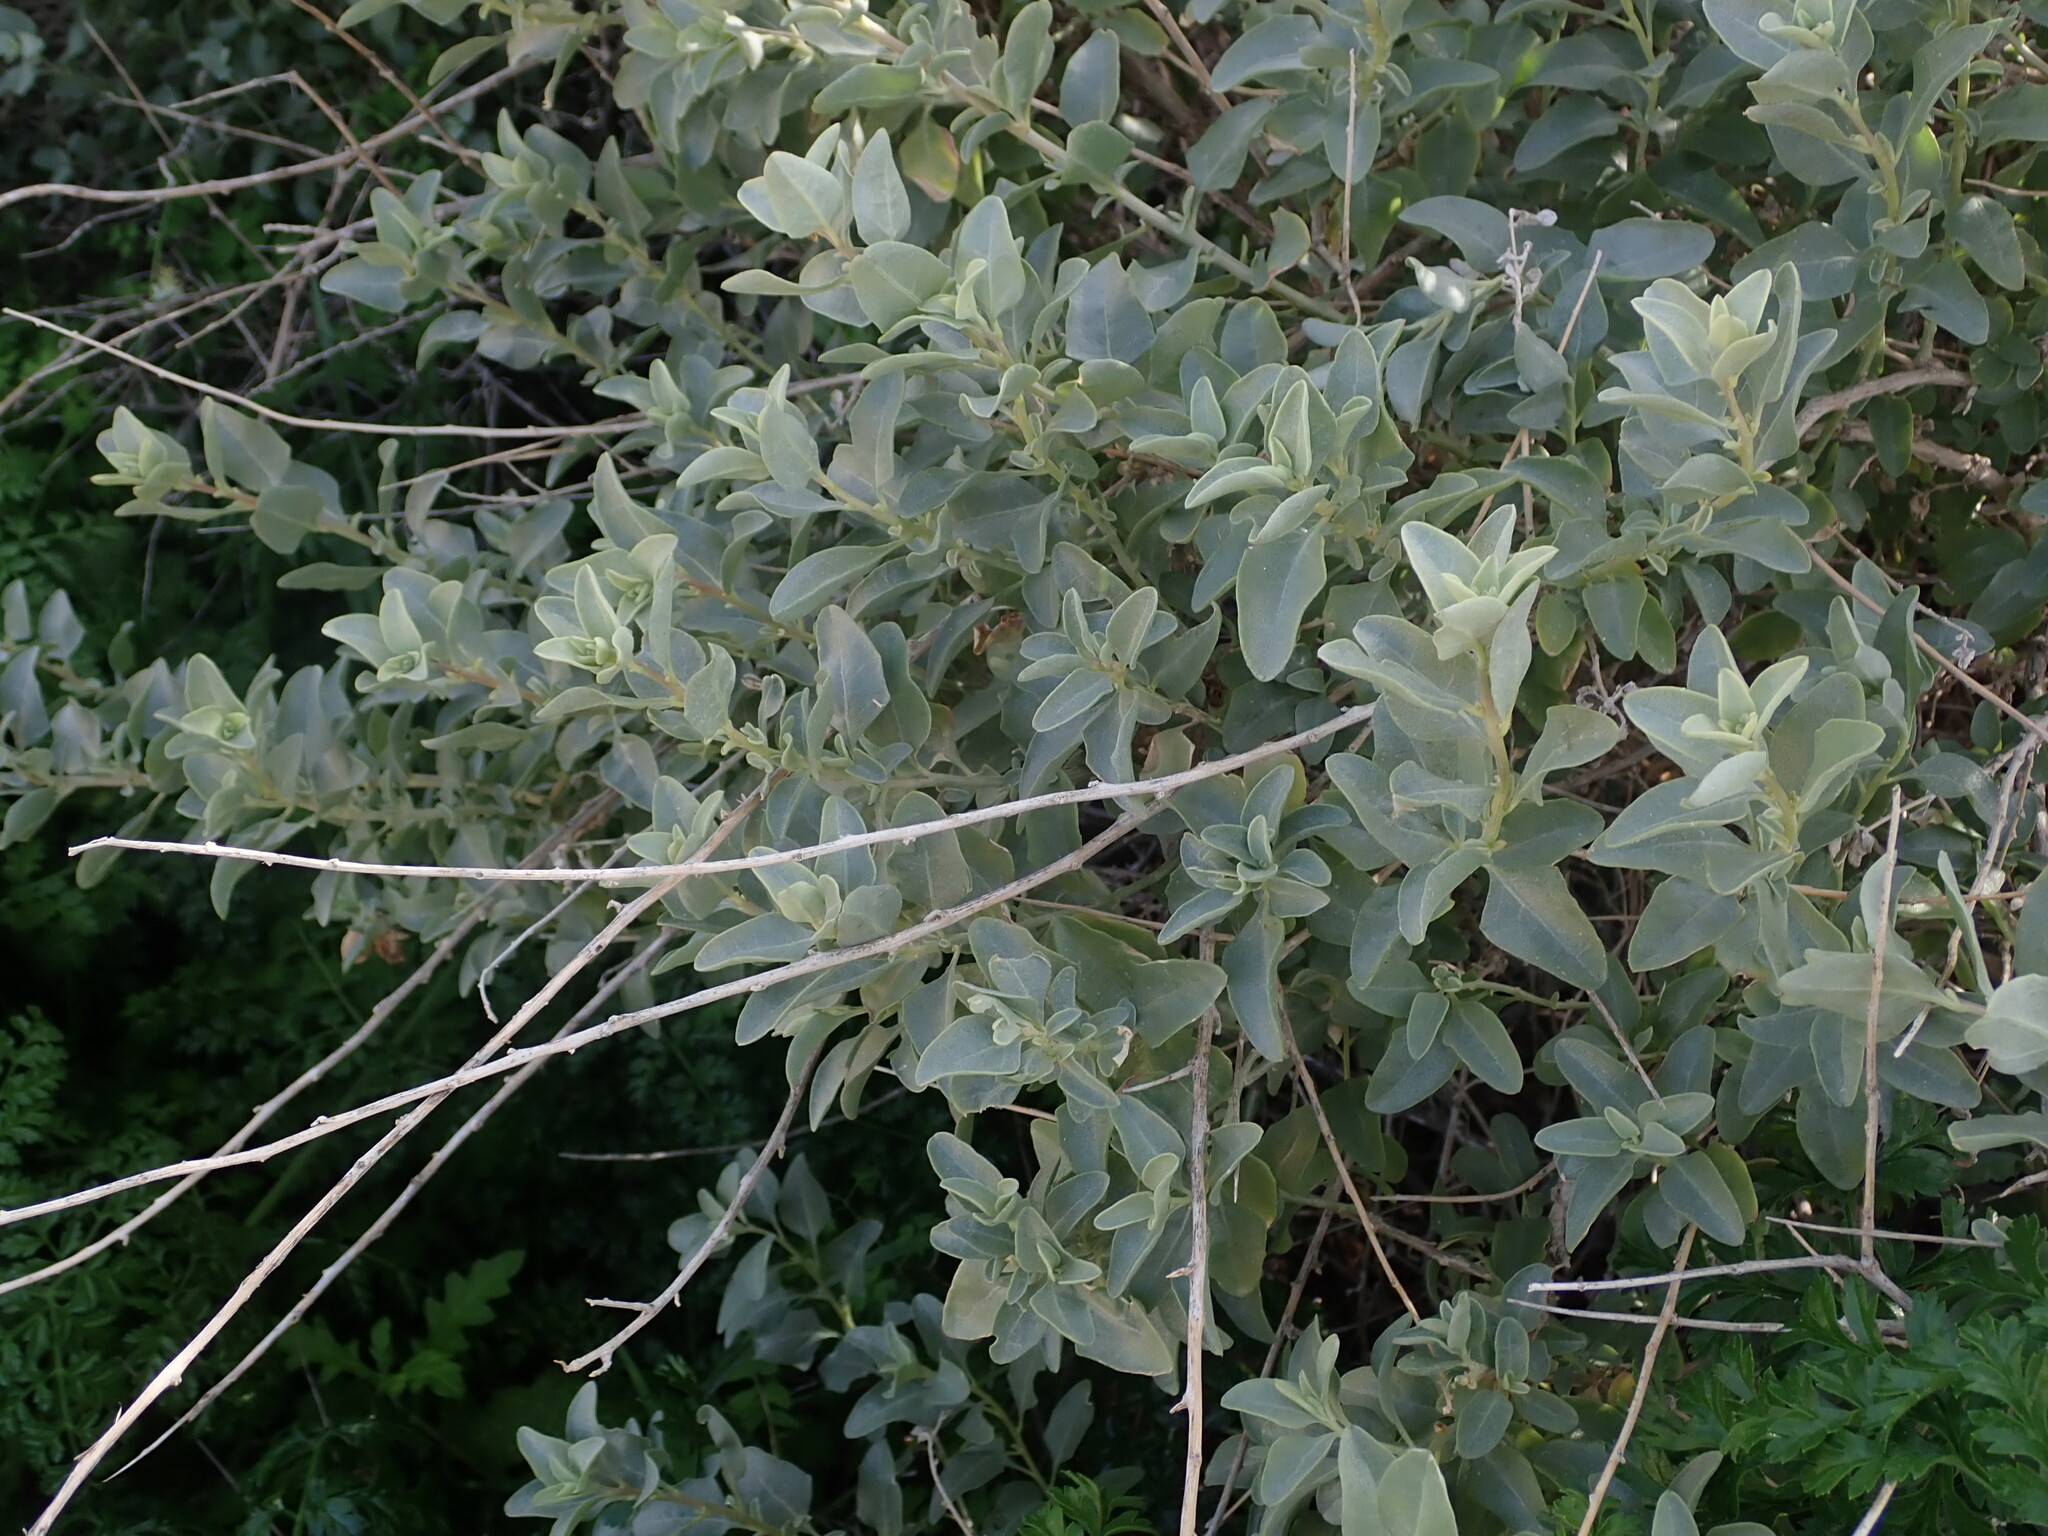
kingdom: Plantae
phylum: Tracheophyta
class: Magnoliopsida
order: Caryophyllales
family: Amaranthaceae
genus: Atriplex
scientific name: Atriplex halimus
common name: Shrubby orache
